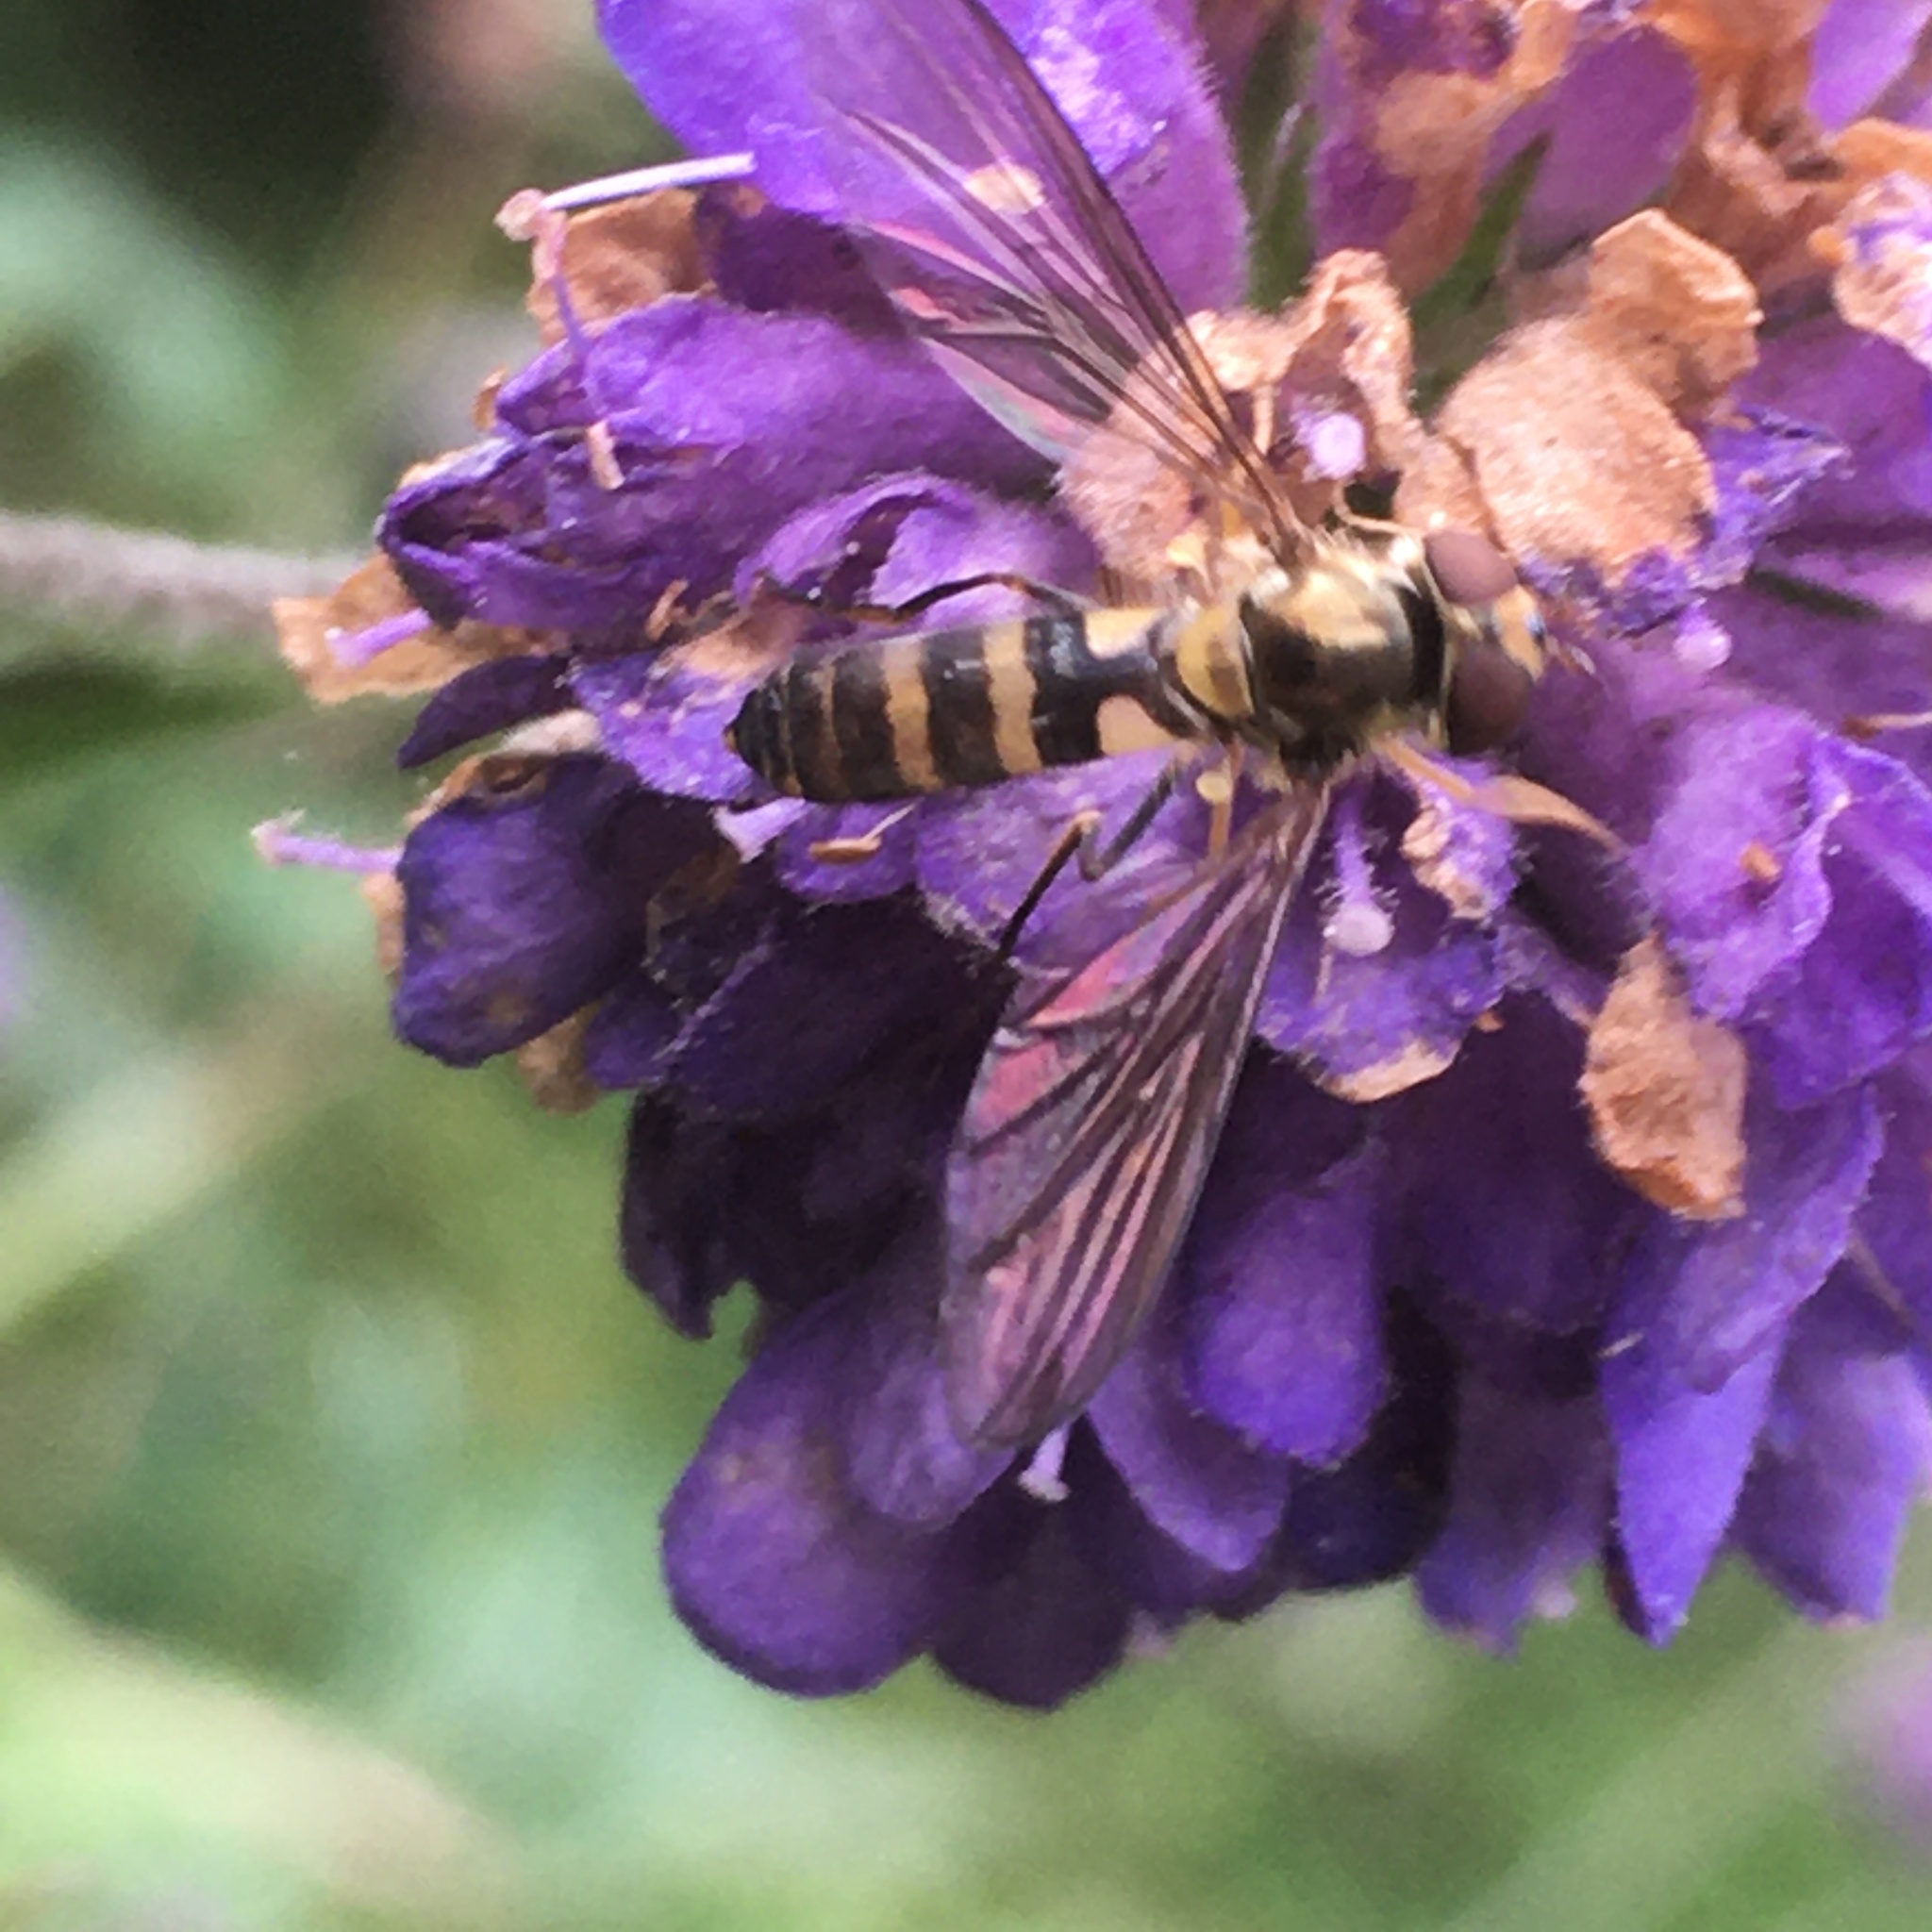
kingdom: Animalia
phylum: Arthropoda
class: Insecta
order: Diptera
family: Syrphidae
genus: Meliscaeva
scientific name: Meliscaeva cinctella
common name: American thintail fly
